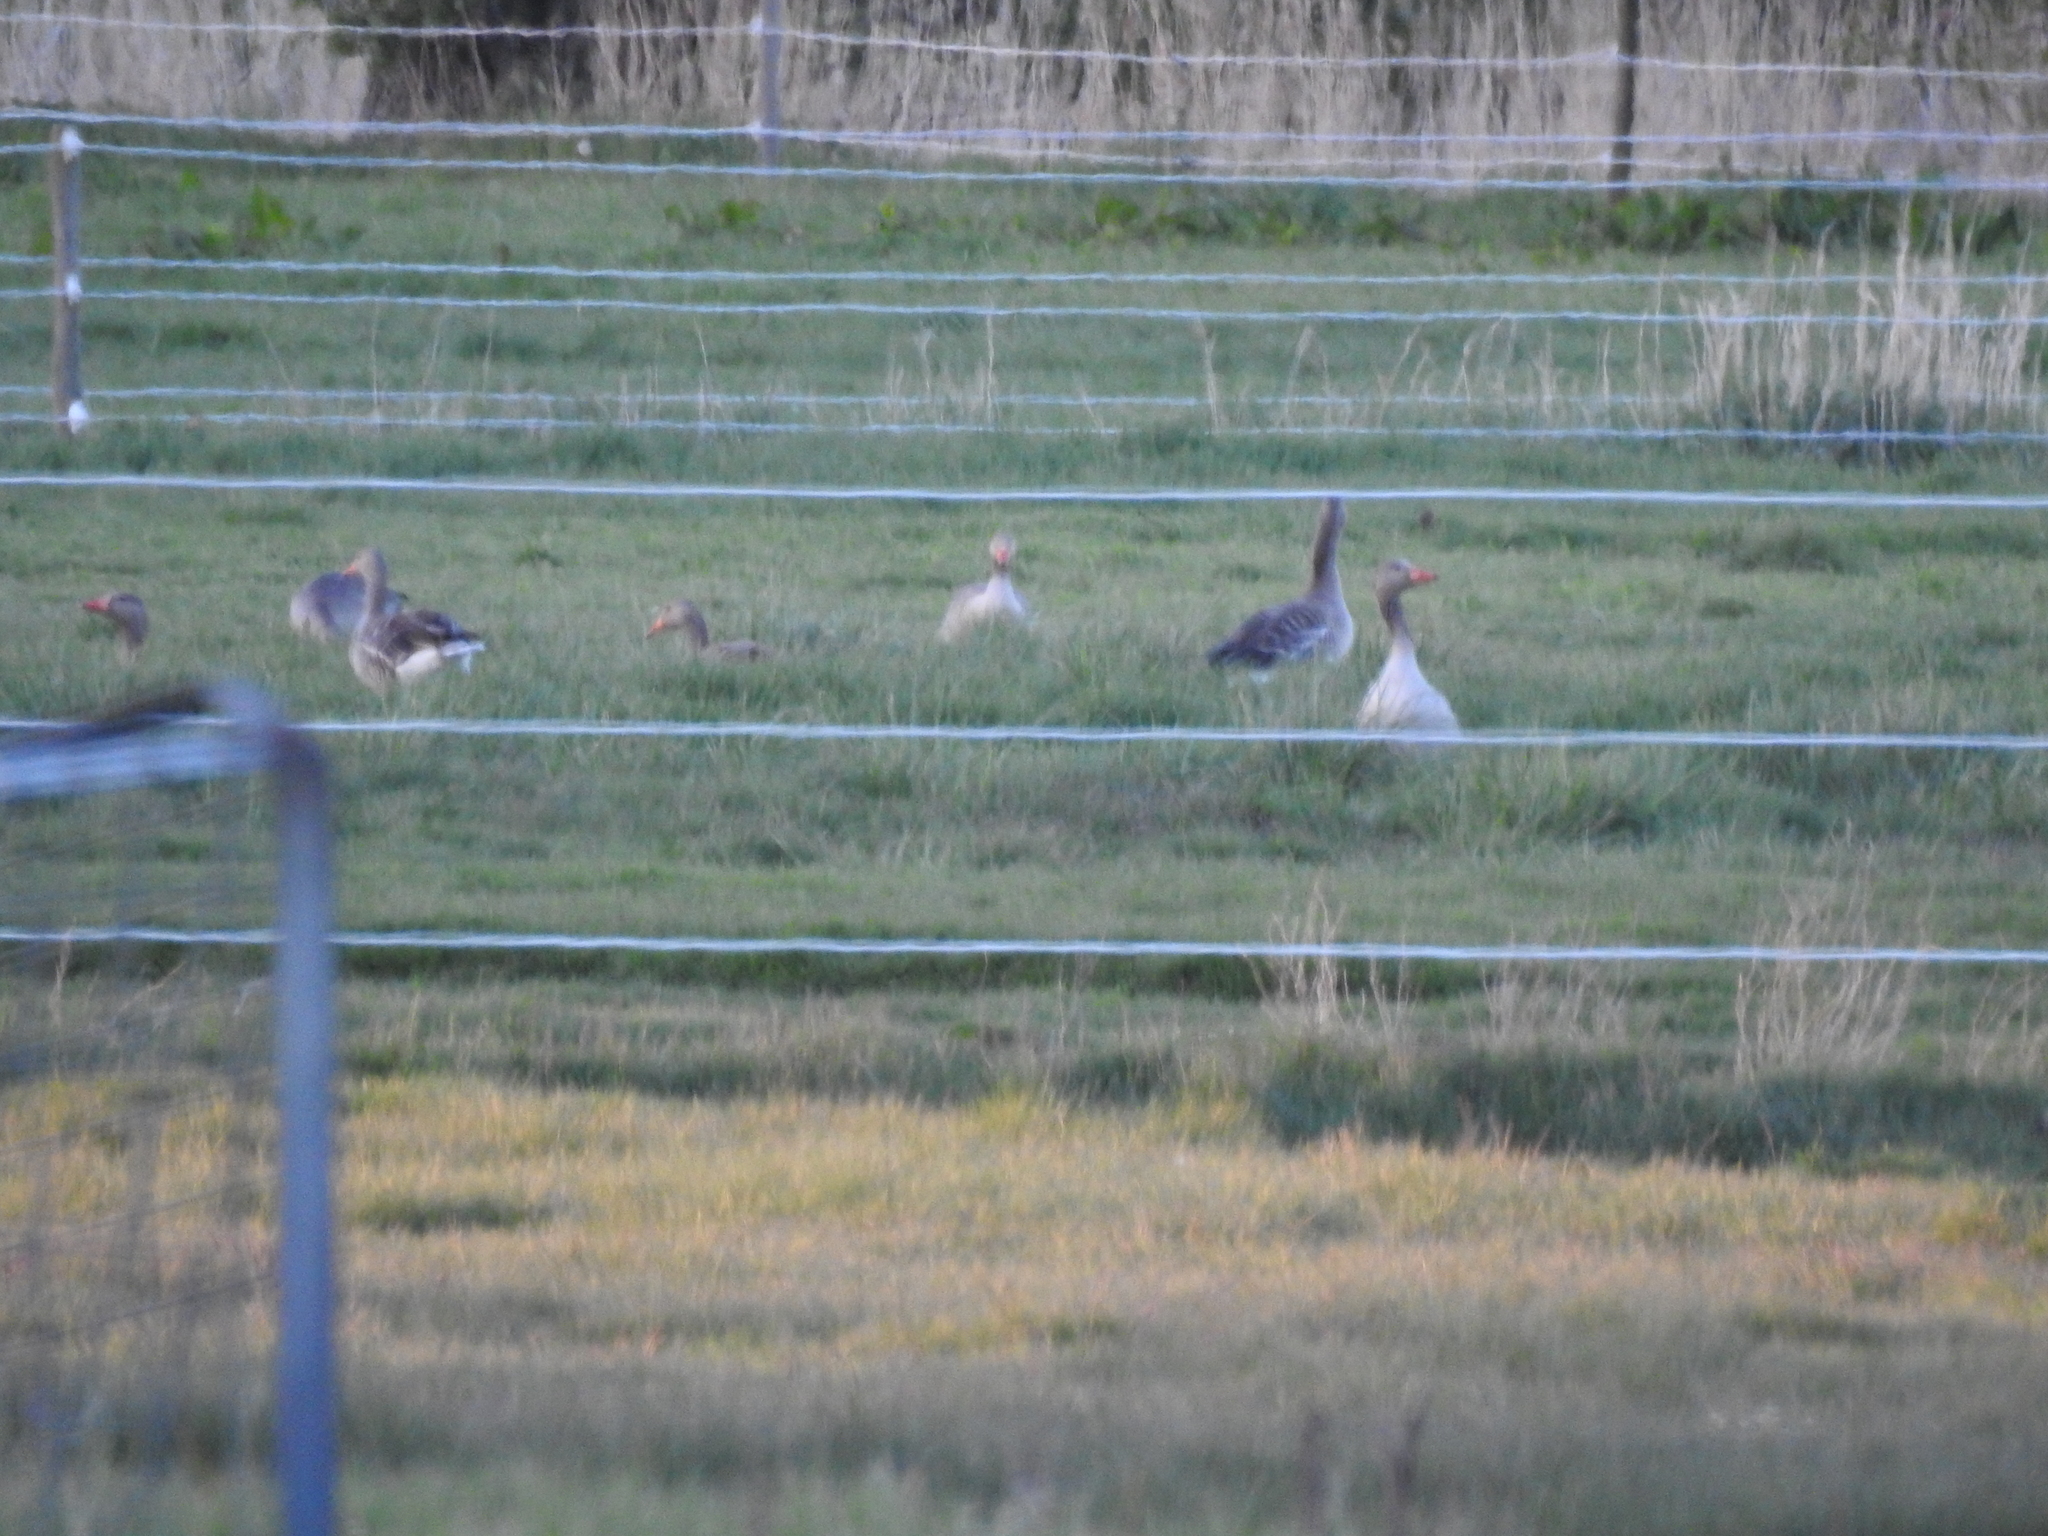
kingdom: Animalia
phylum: Chordata
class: Aves
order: Anseriformes
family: Anatidae
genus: Anser
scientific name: Anser anser
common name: Greylag goose
